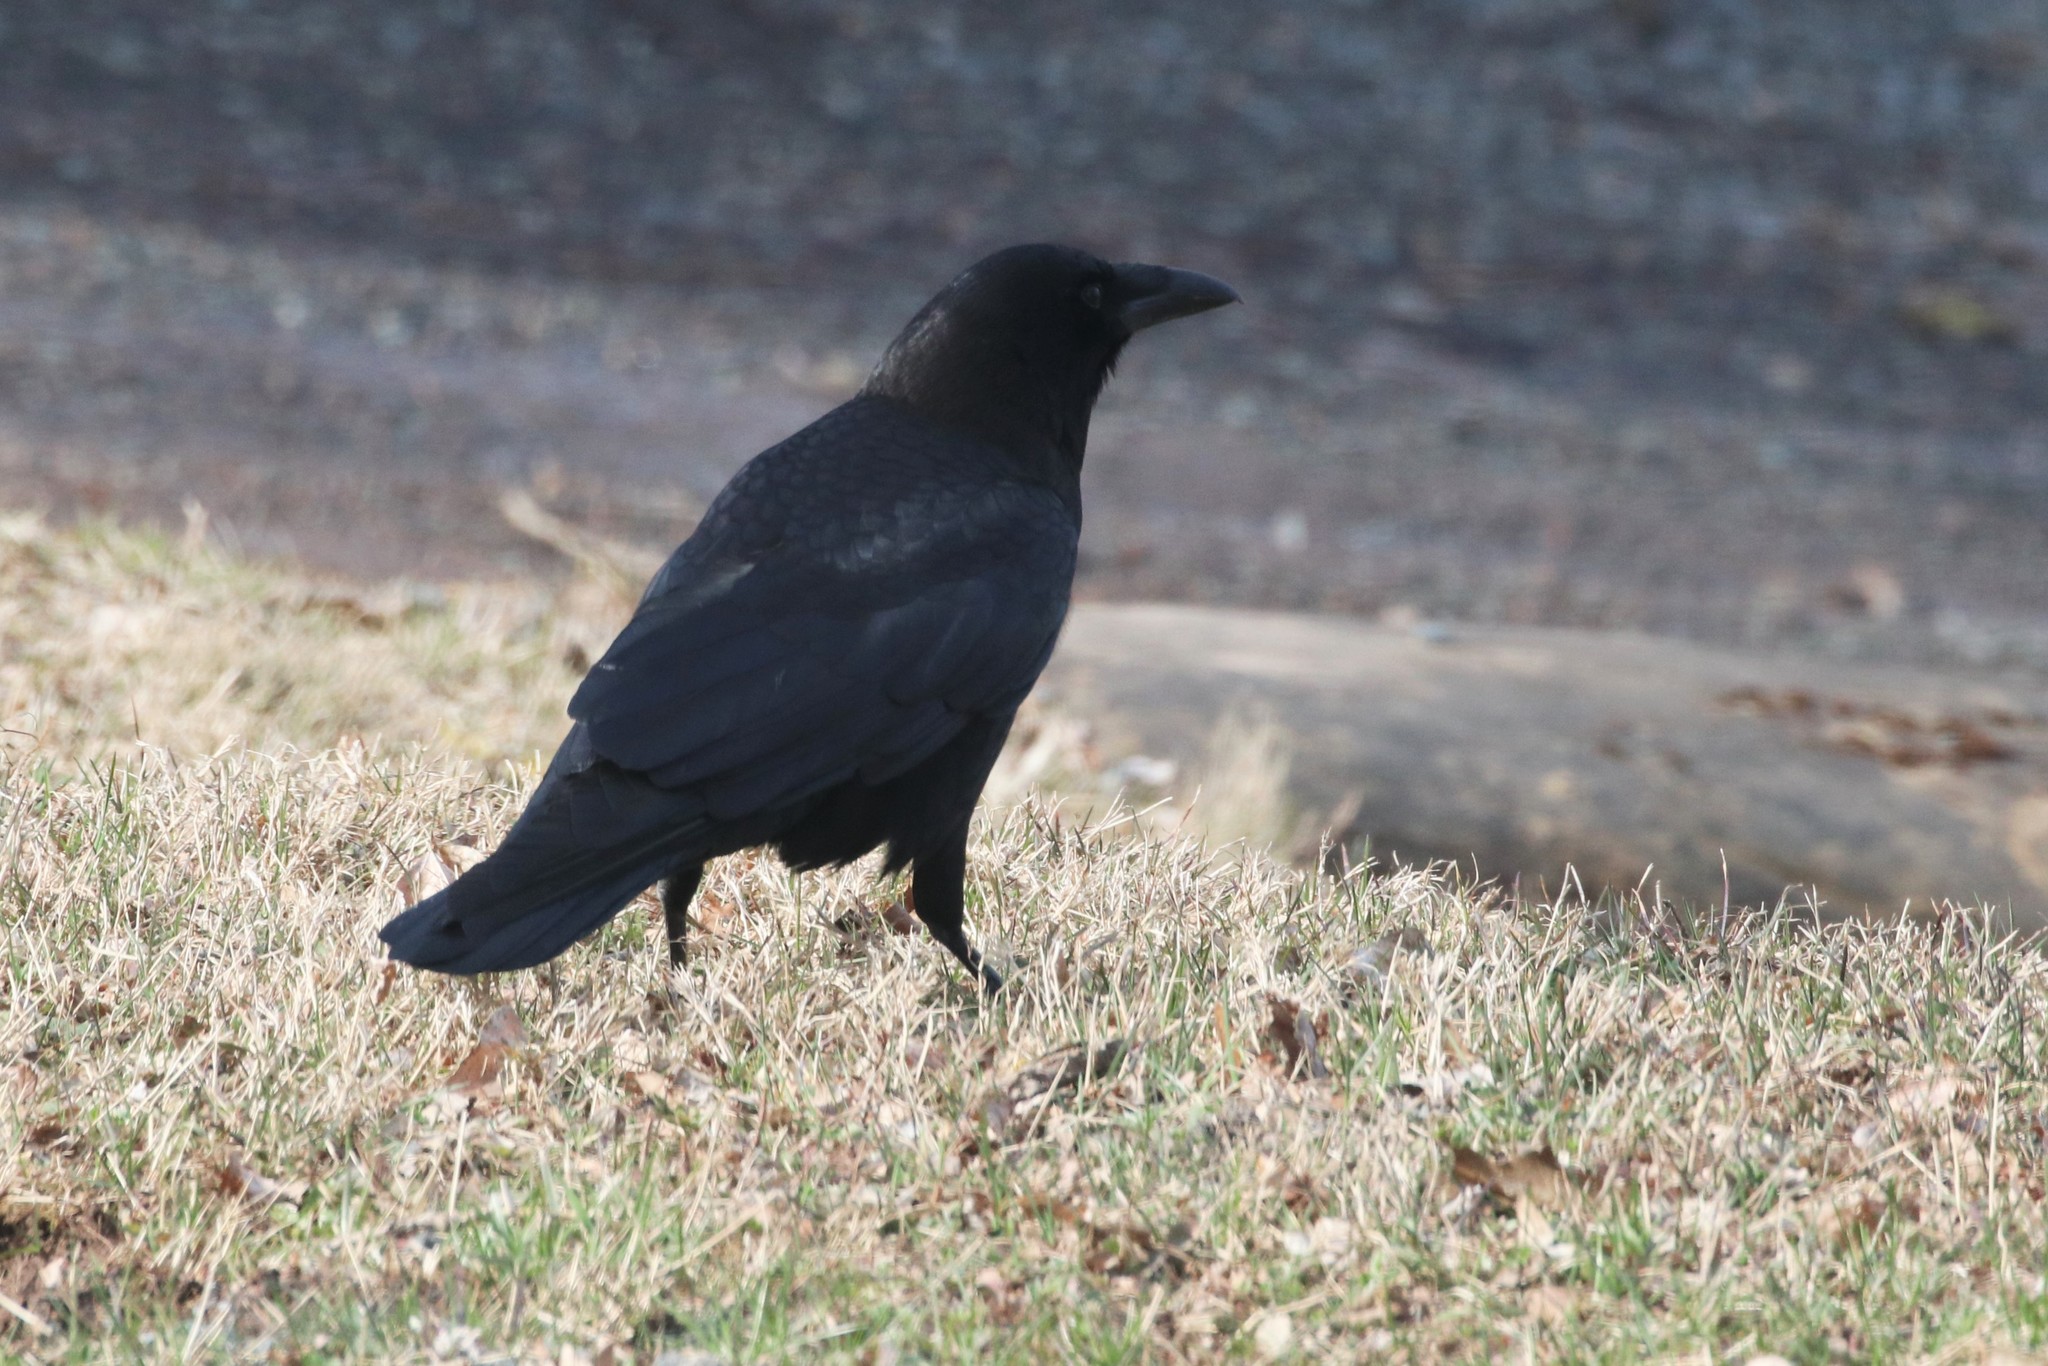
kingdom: Animalia
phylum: Chordata
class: Aves
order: Passeriformes
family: Corvidae
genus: Corvus
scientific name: Corvus brachyrhynchos
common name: American crow
